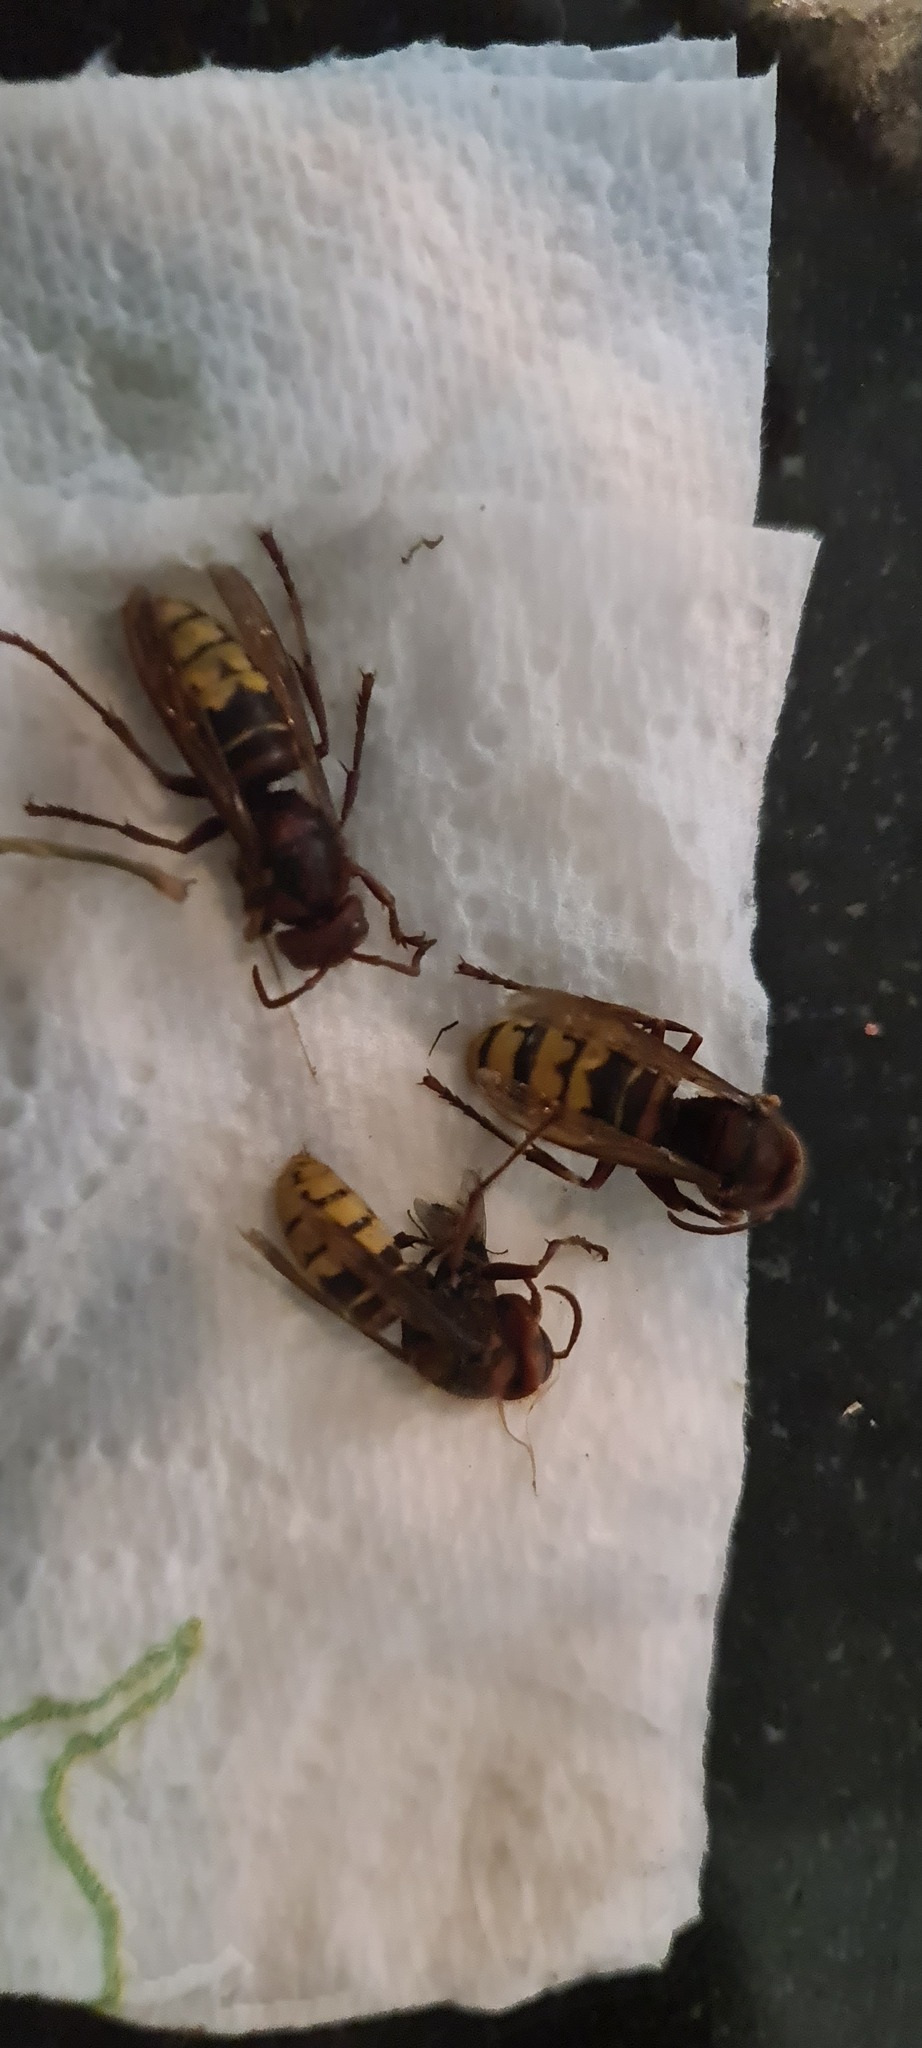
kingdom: Animalia
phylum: Arthropoda
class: Insecta
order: Hymenoptera
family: Vespidae
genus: Vespa
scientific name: Vespa crabro
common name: Hornet
